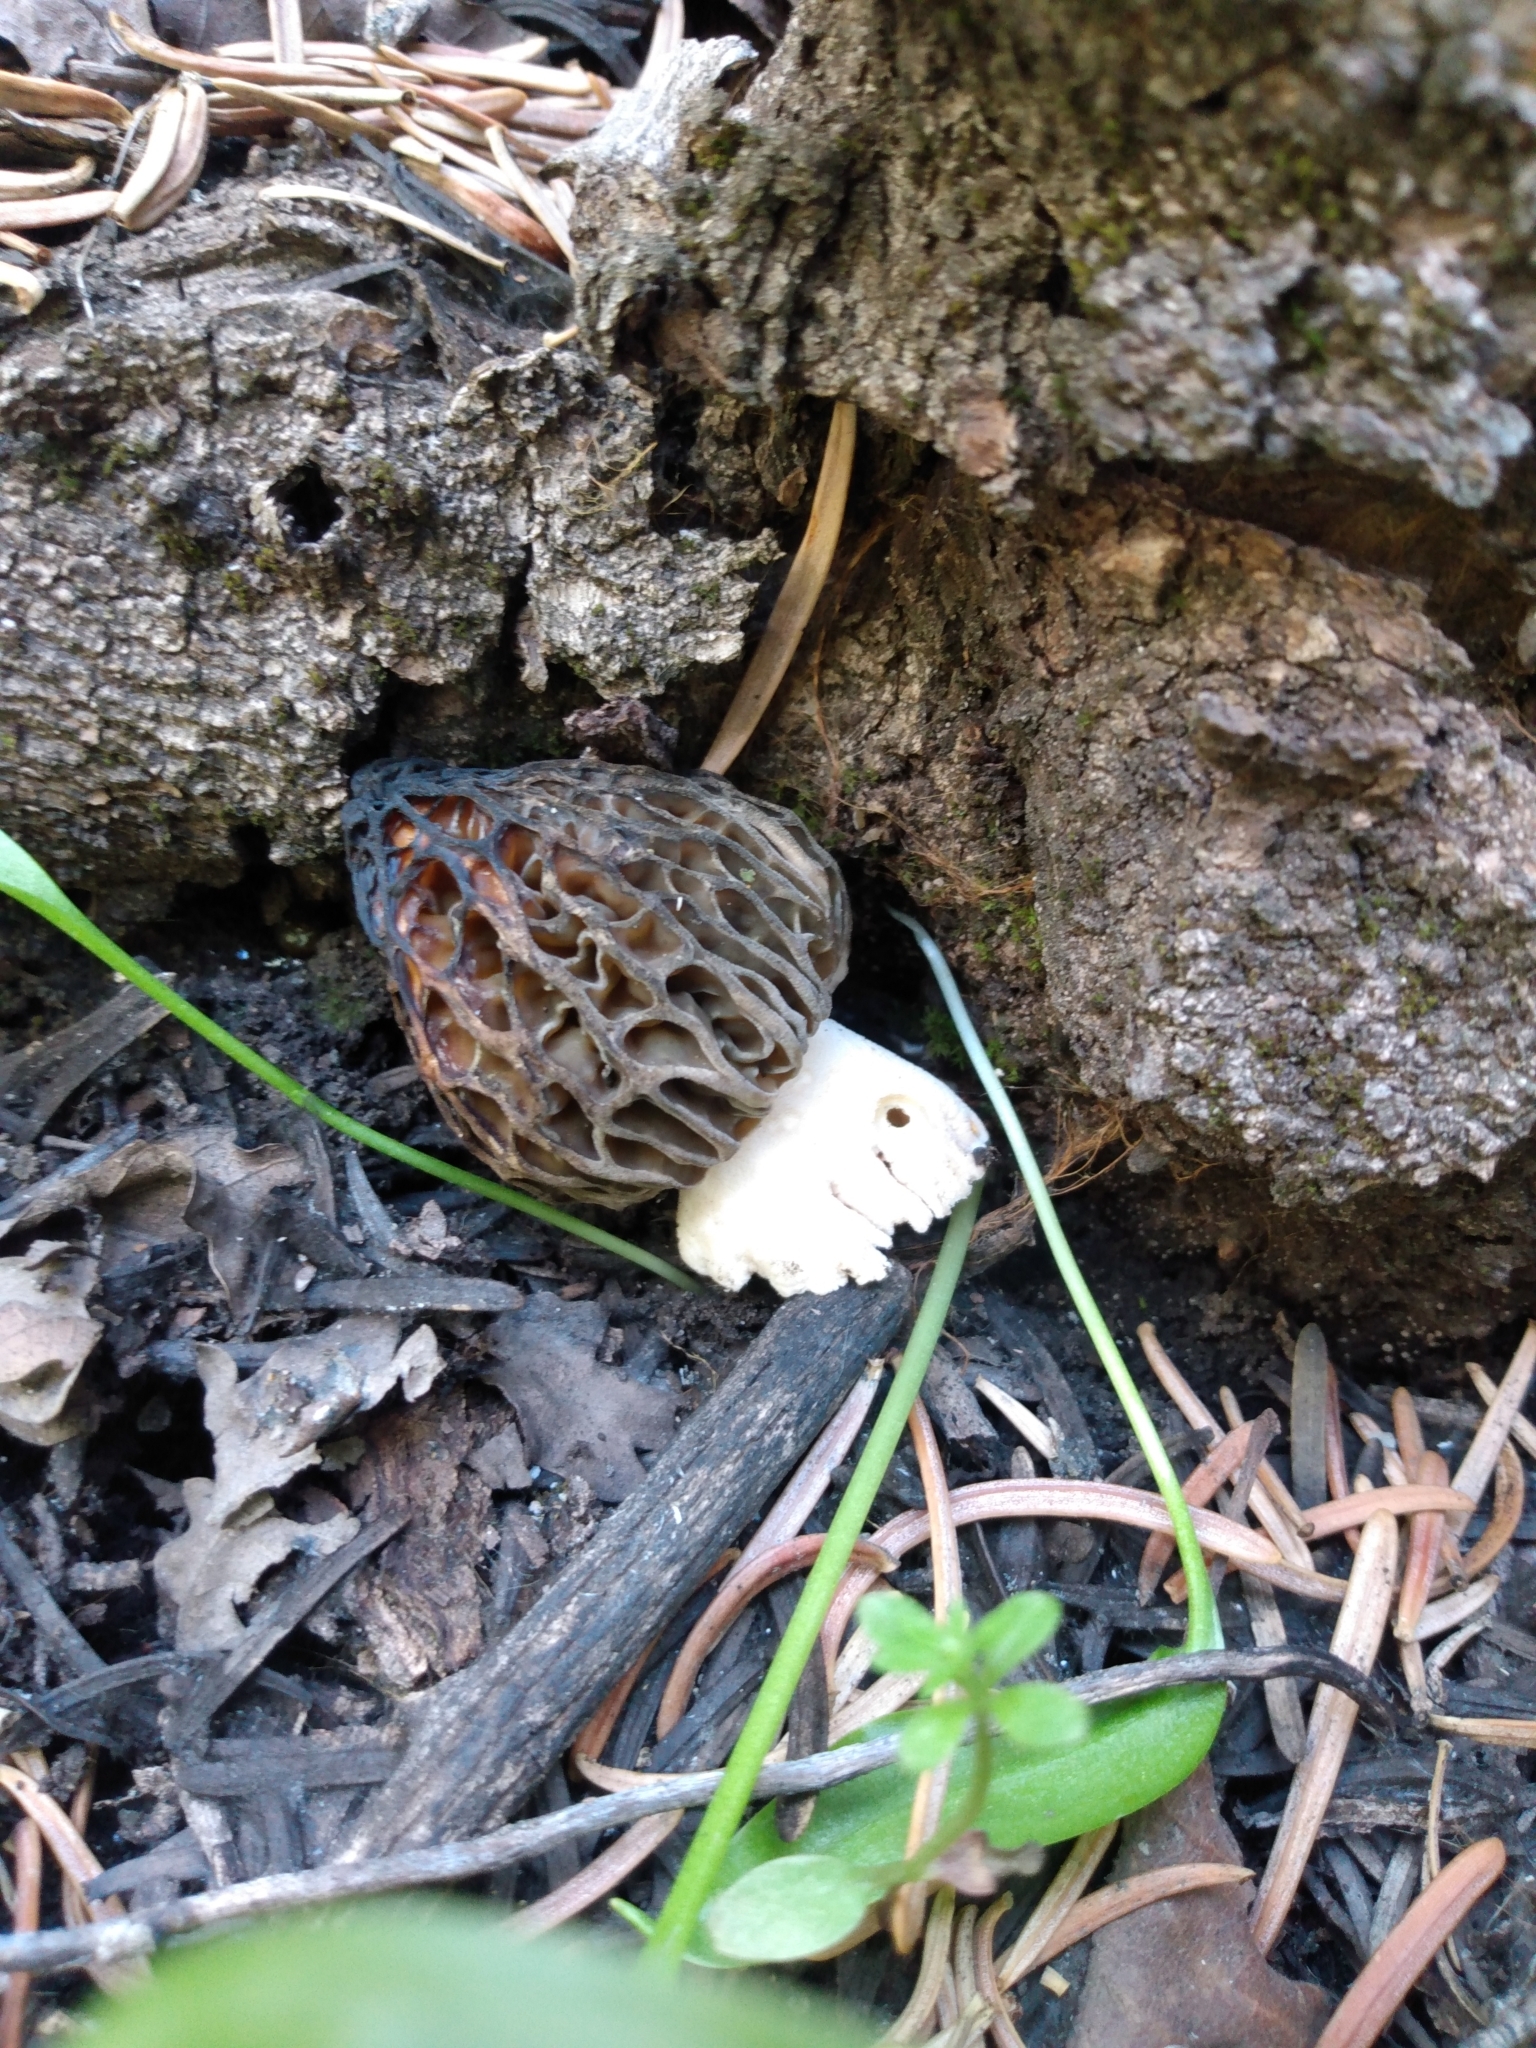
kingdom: Fungi
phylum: Ascomycota
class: Pezizomycetes
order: Pezizales
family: Morchellaceae
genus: Morchella
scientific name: Morchella snyderi
